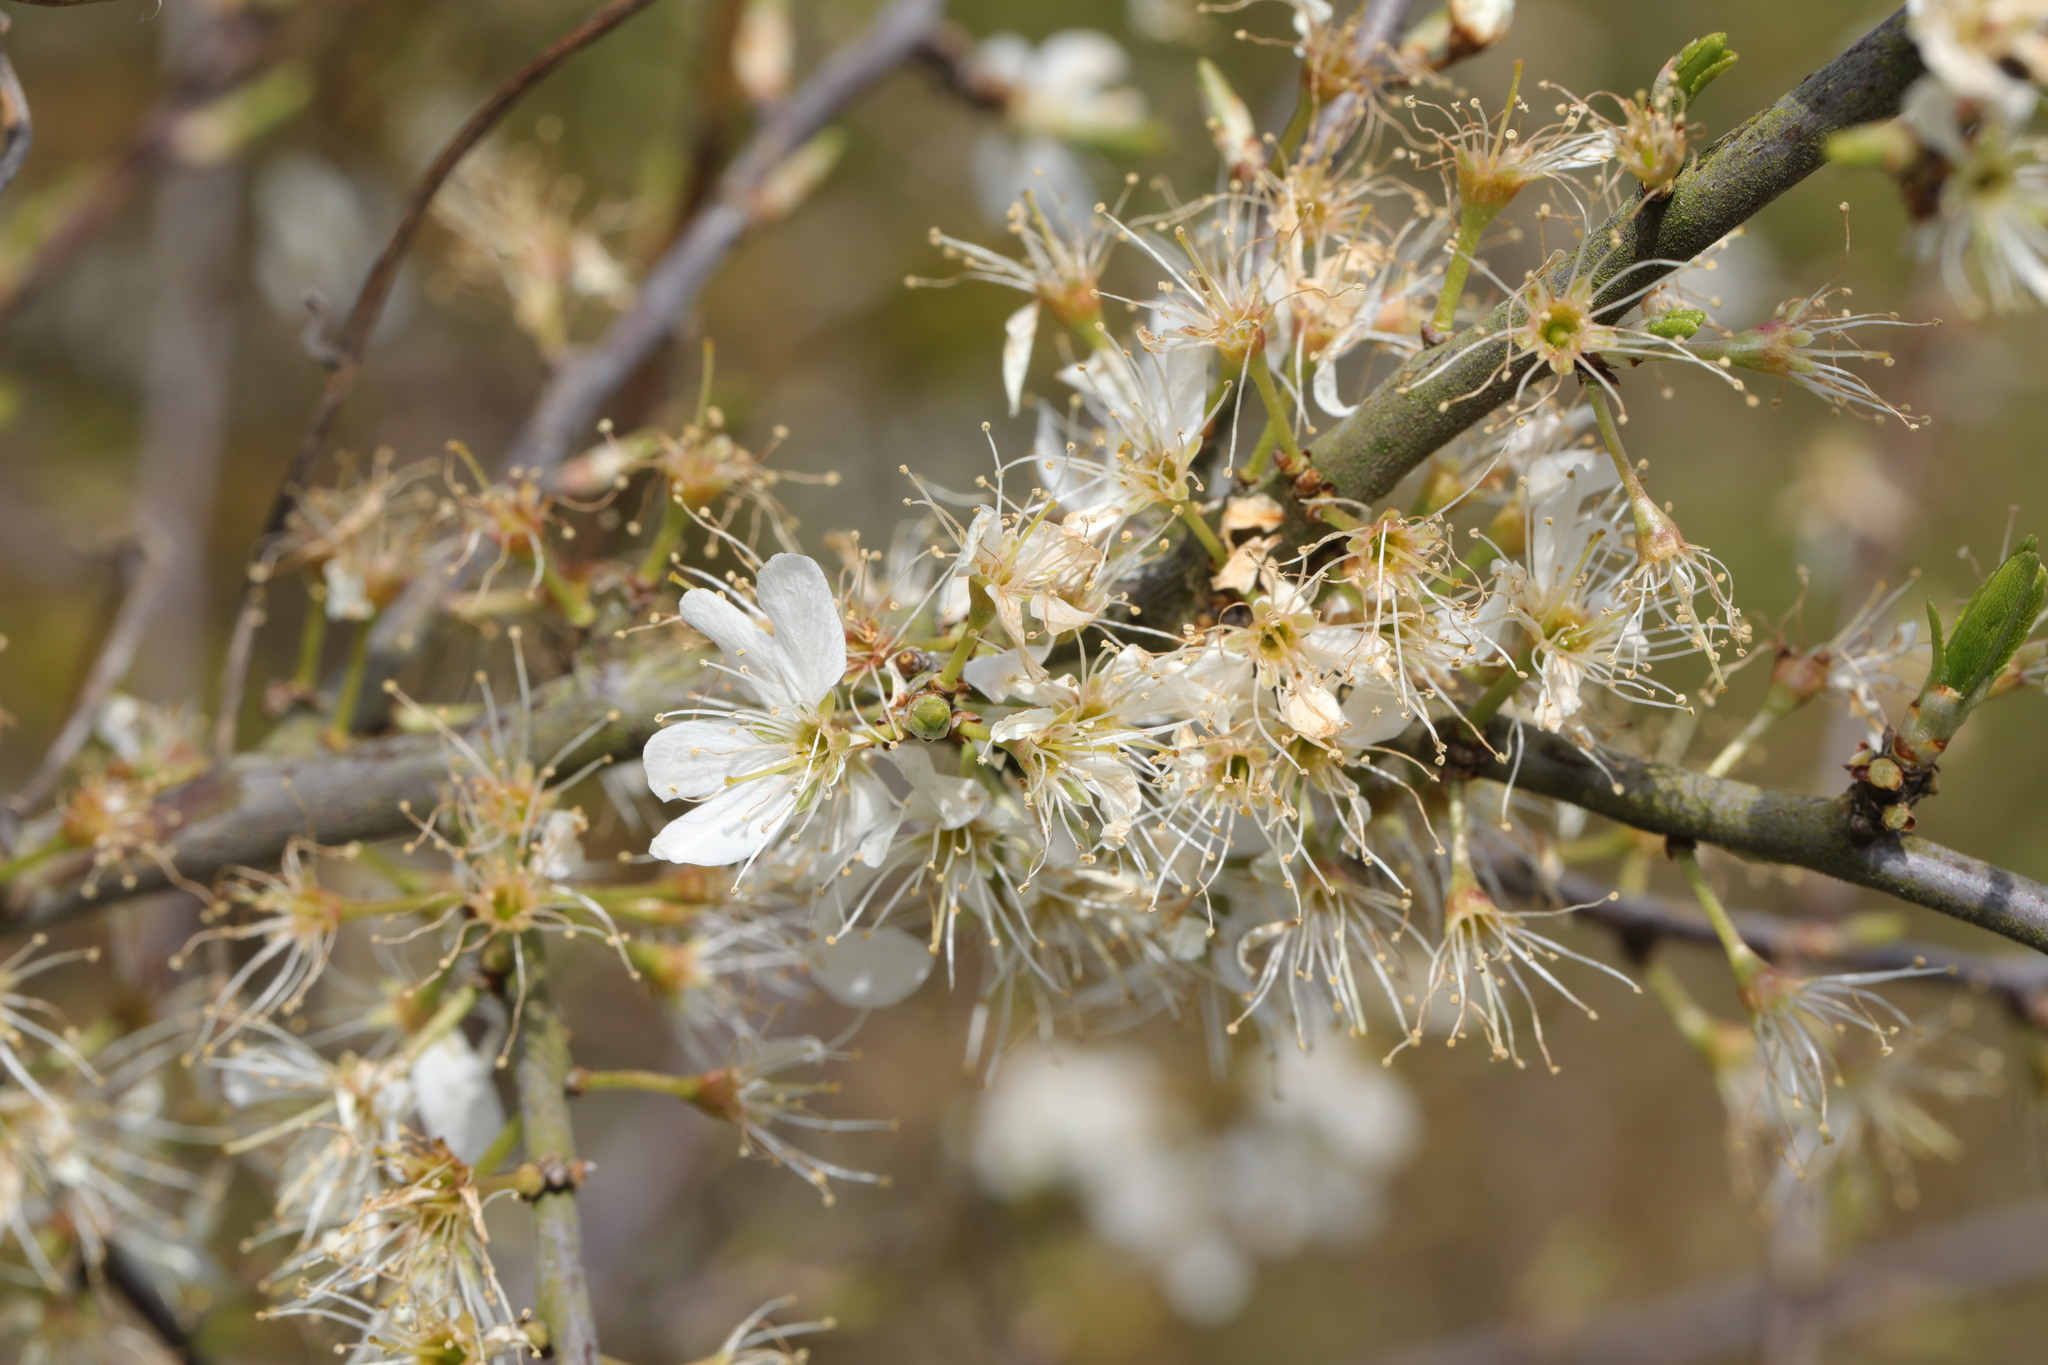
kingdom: Plantae
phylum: Tracheophyta
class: Magnoliopsida
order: Rosales
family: Rosaceae
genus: Prunus
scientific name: Prunus spinosa
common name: Blackthorn
